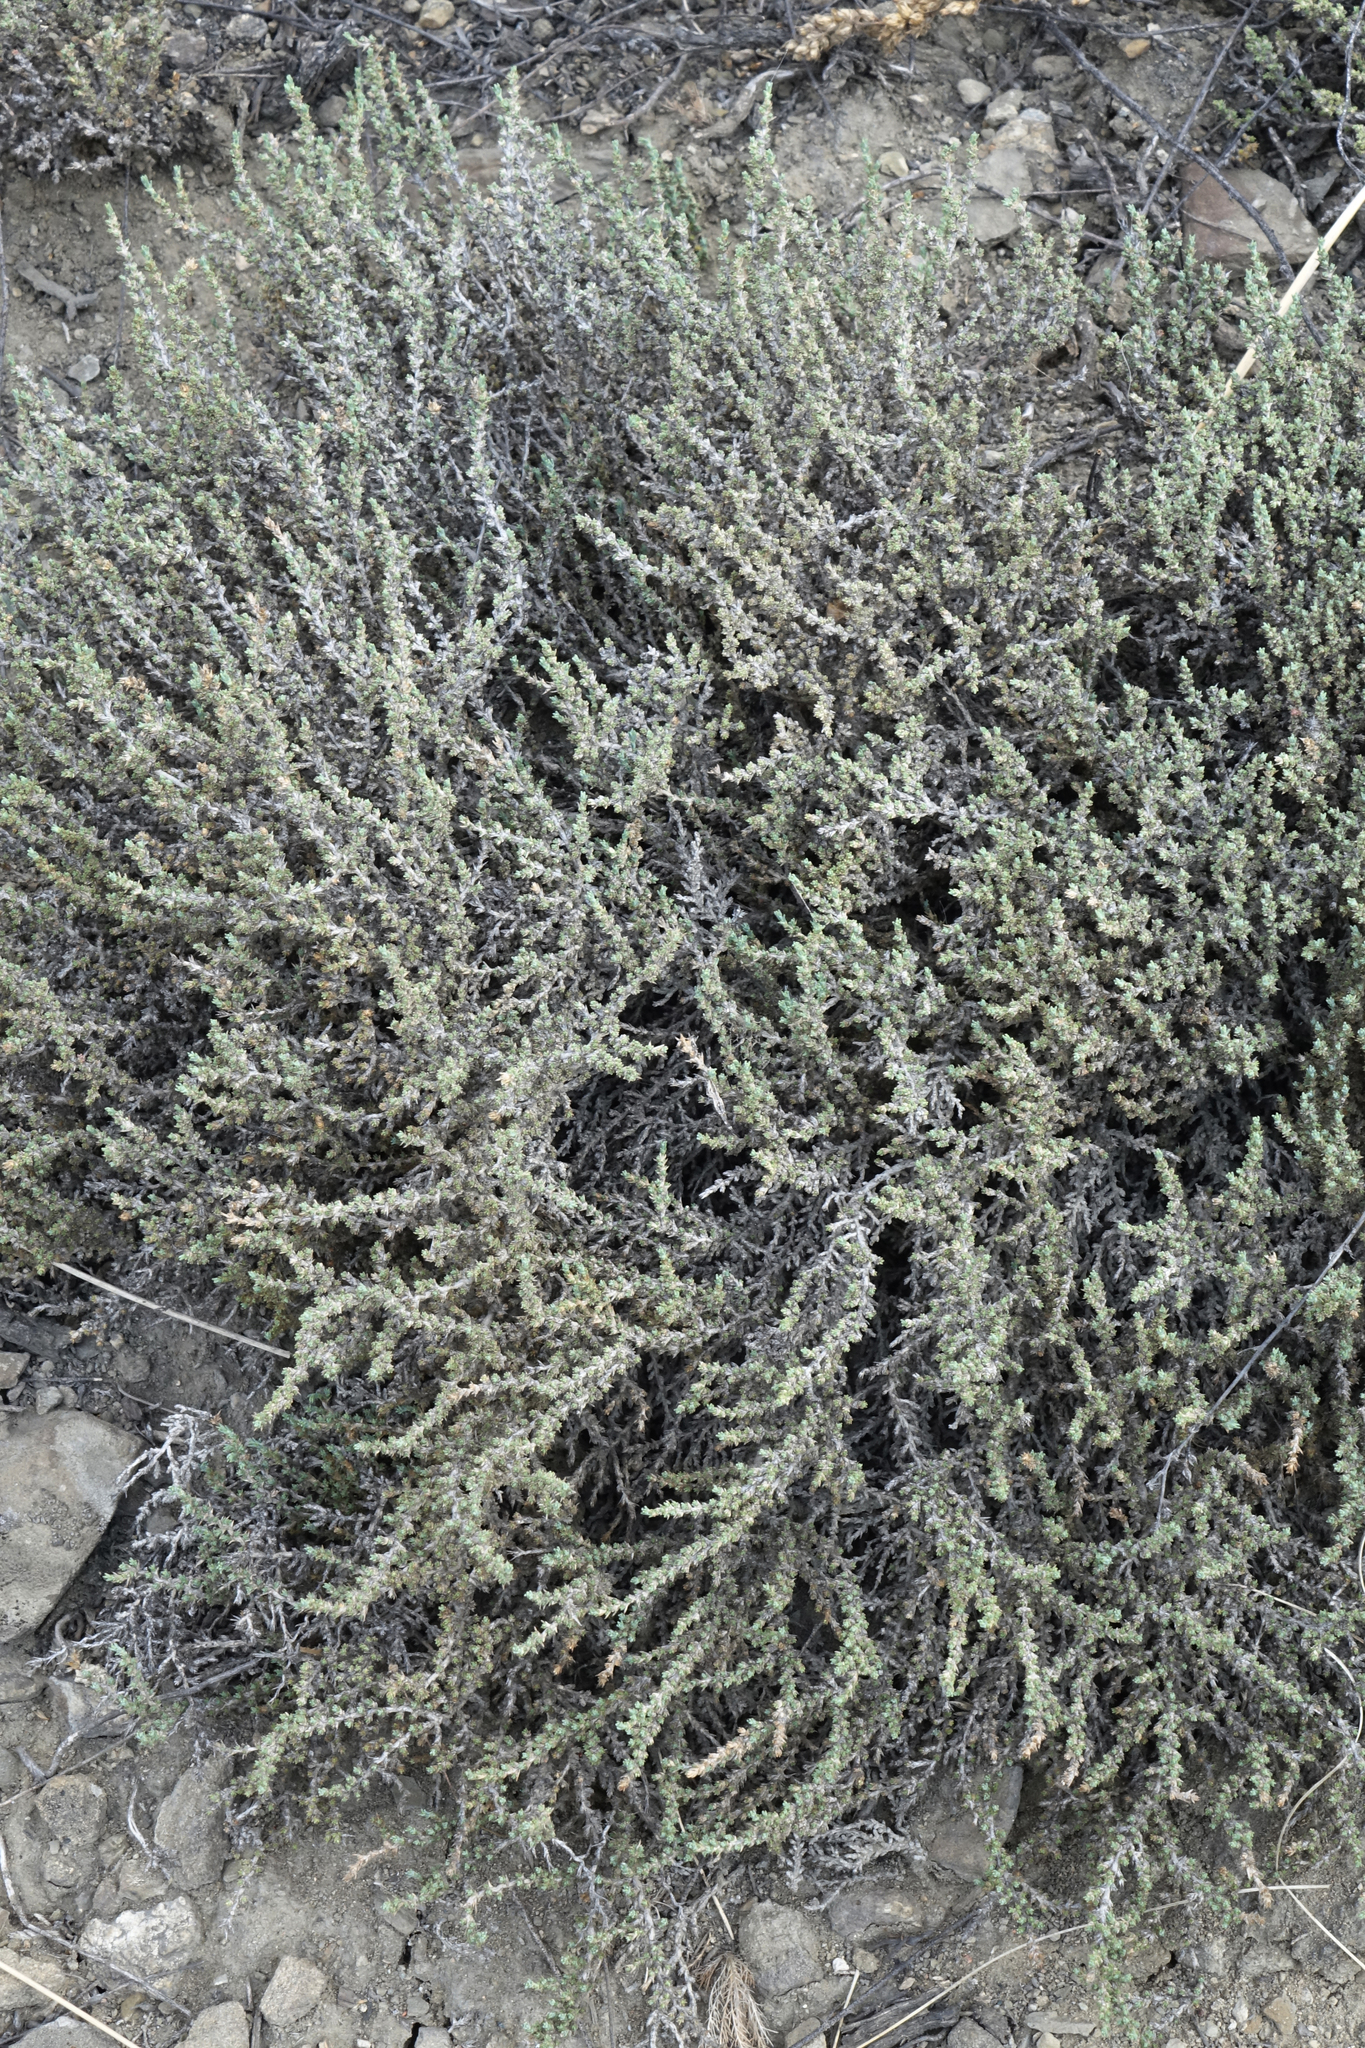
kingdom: Plantae
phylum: Tracheophyta
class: Magnoliopsida
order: Caryophyllales
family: Amaranthaceae
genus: Nanophyton
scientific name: Nanophyton grubovii
